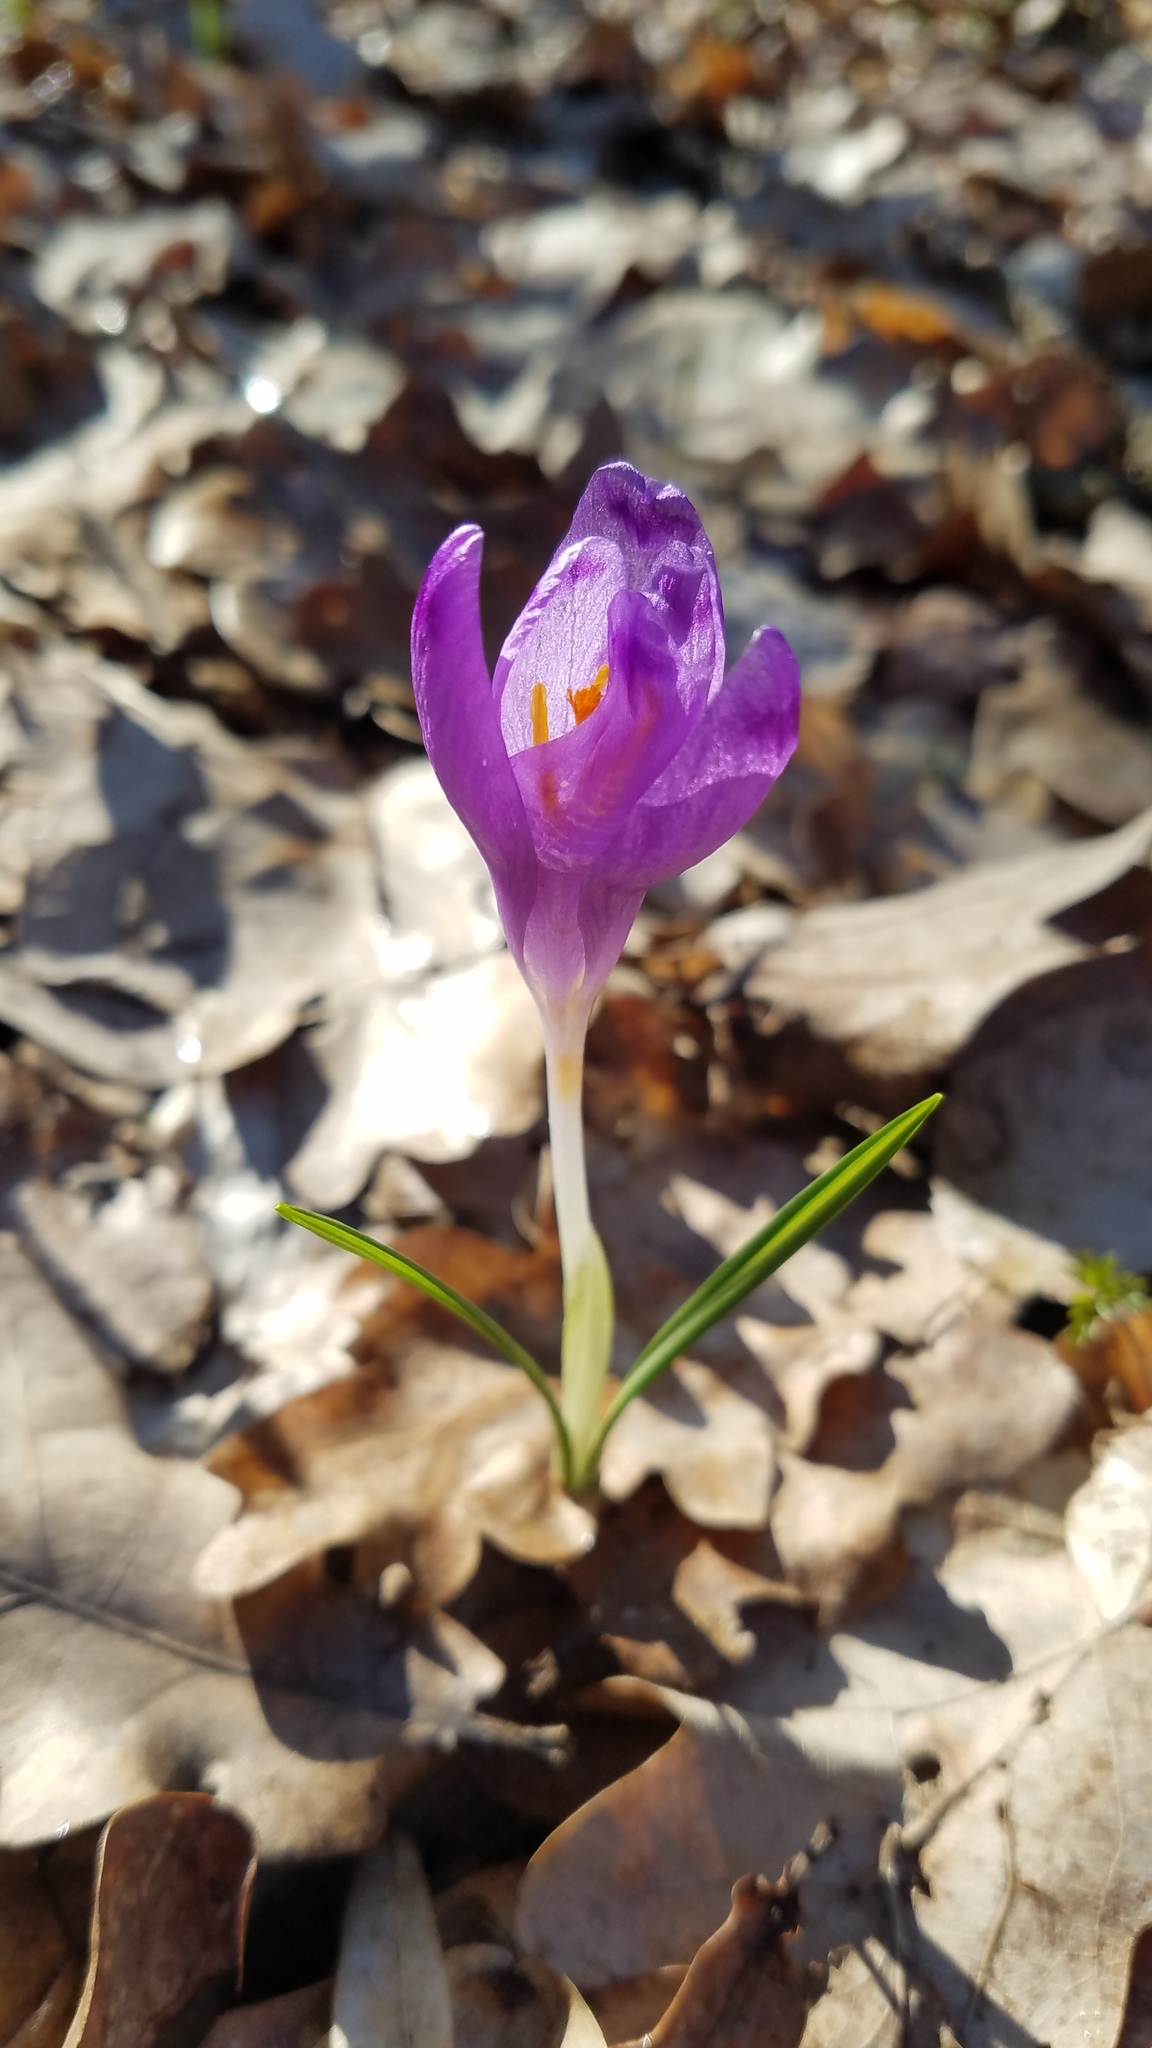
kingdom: Plantae
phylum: Tracheophyta
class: Liliopsida
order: Asparagales
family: Iridaceae
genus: Crocus
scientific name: Crocus heuffelianus
